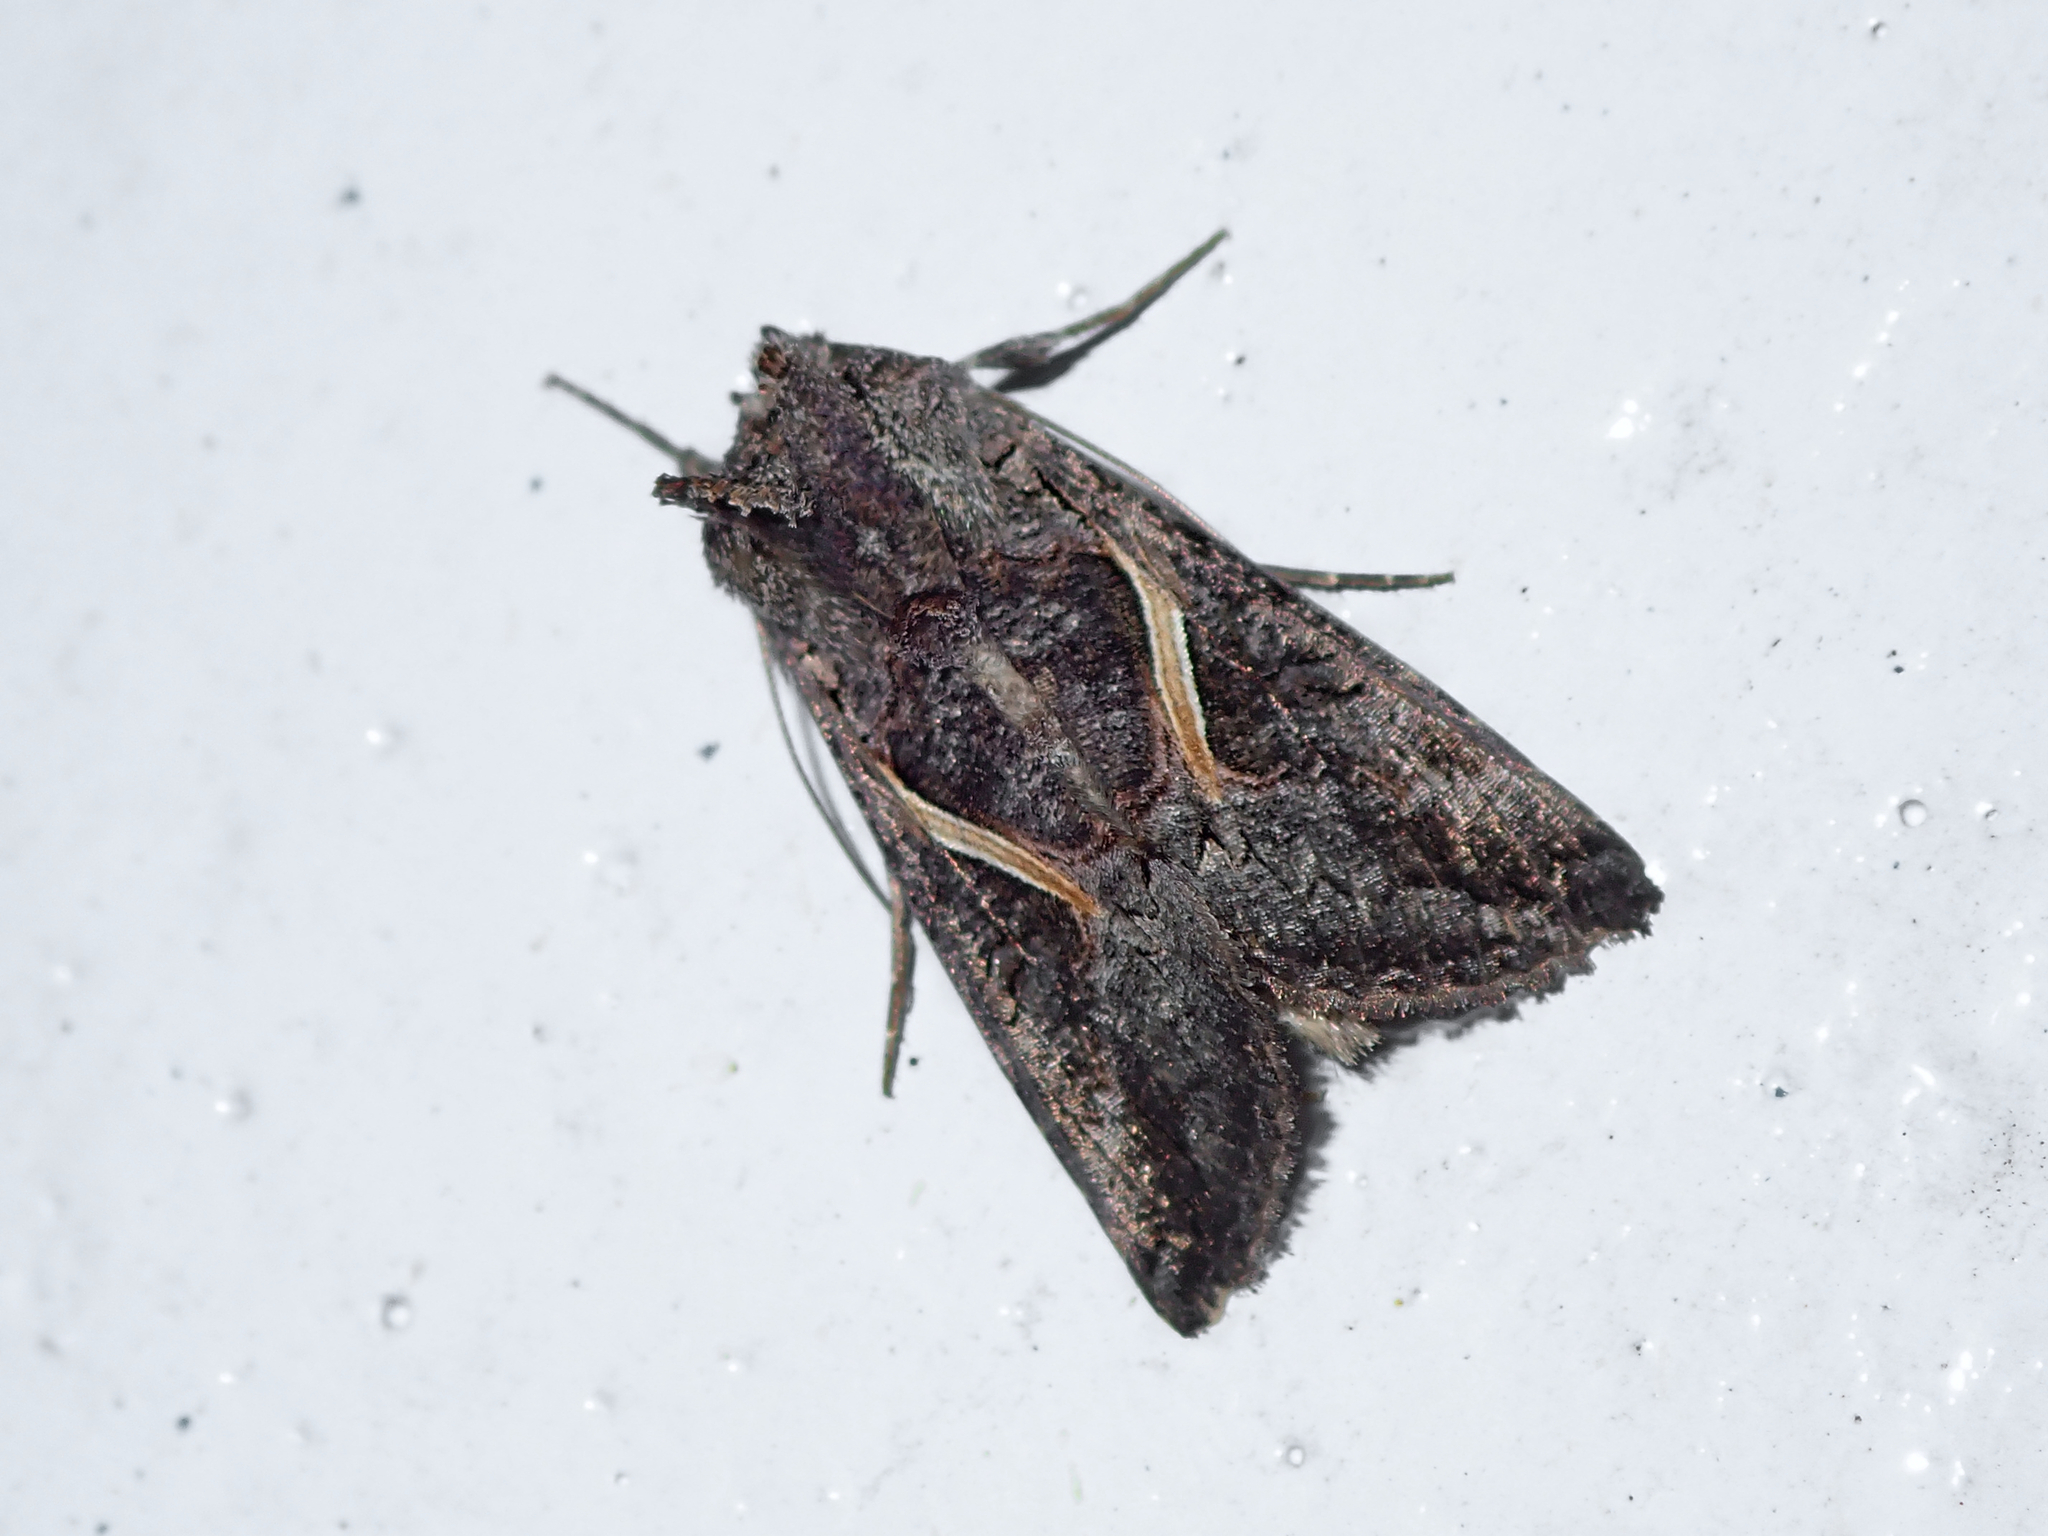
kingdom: Animalia
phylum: Arthropoda
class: Insecta
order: Lepidoptera
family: Noctuidae
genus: Ctenoplusia
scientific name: Ctenoplusia albostriata
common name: Moth
